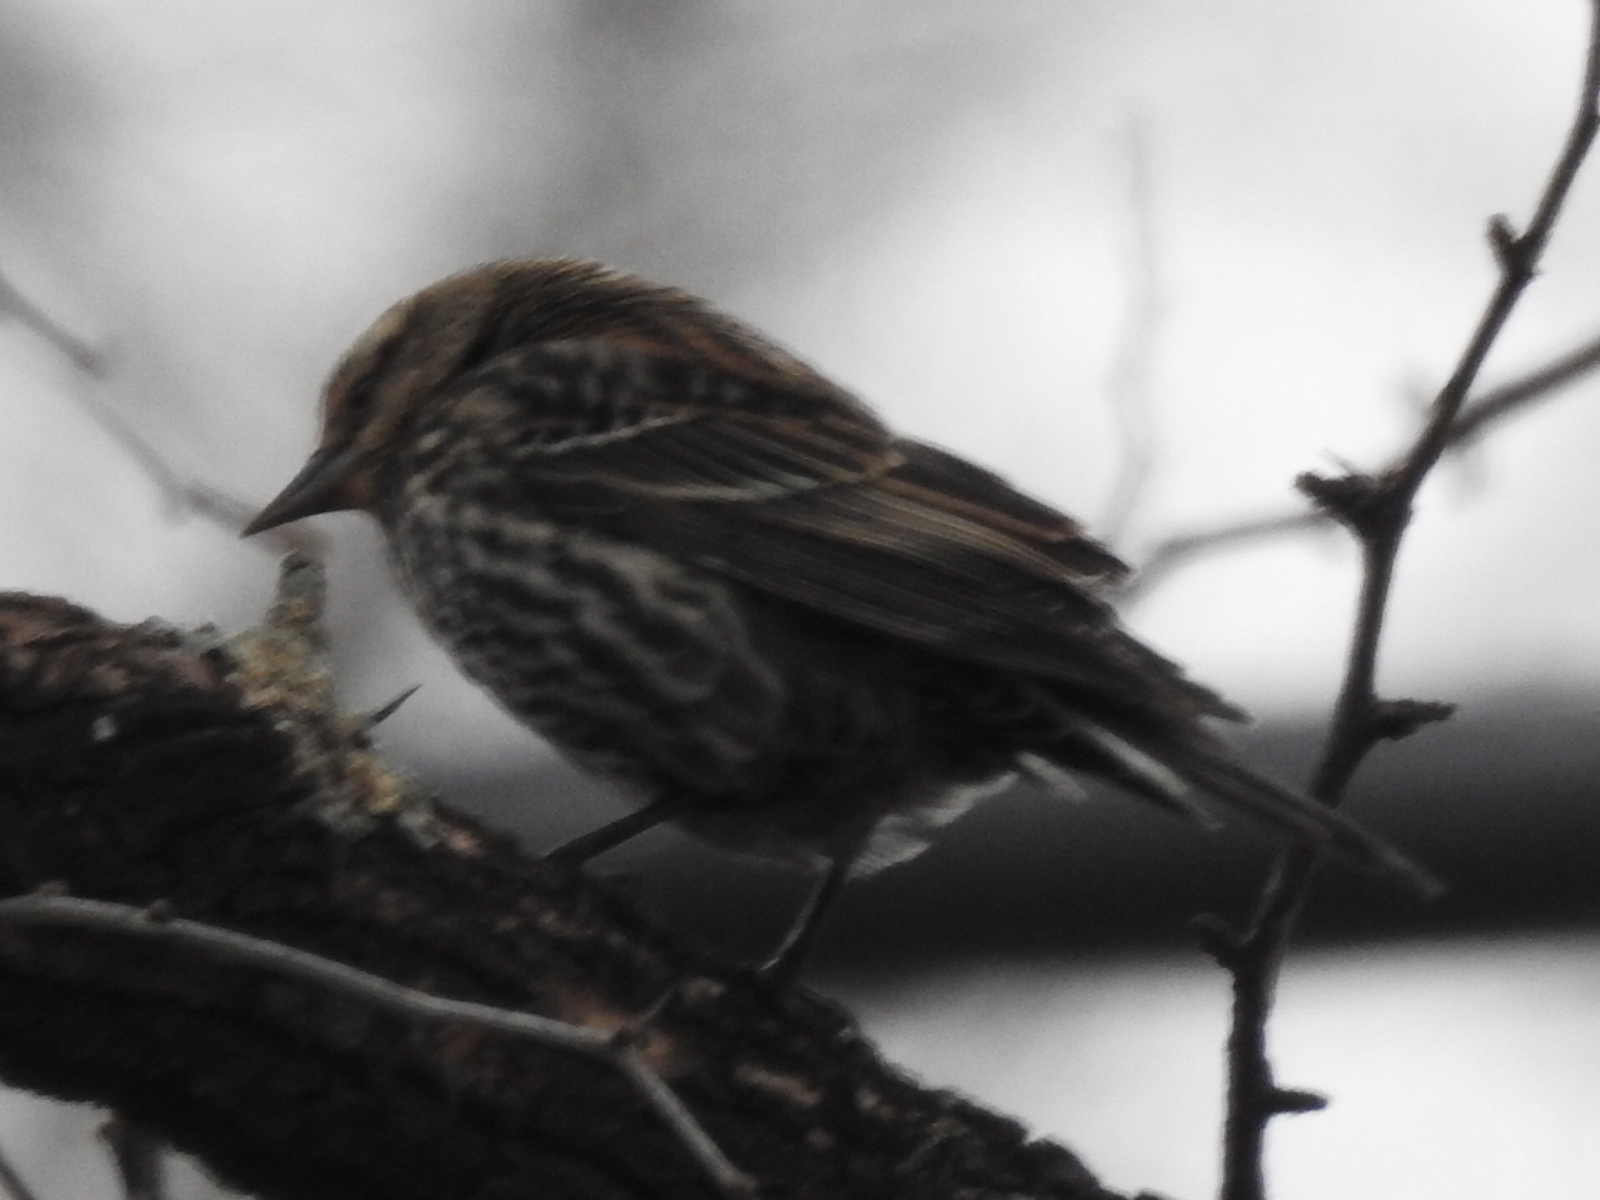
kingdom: Animalia
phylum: Chordata
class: Aves
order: Passeriformes
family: Icteridae
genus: Agelaius
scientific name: Agelaius phoeniceus
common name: Red-winged blackbird
